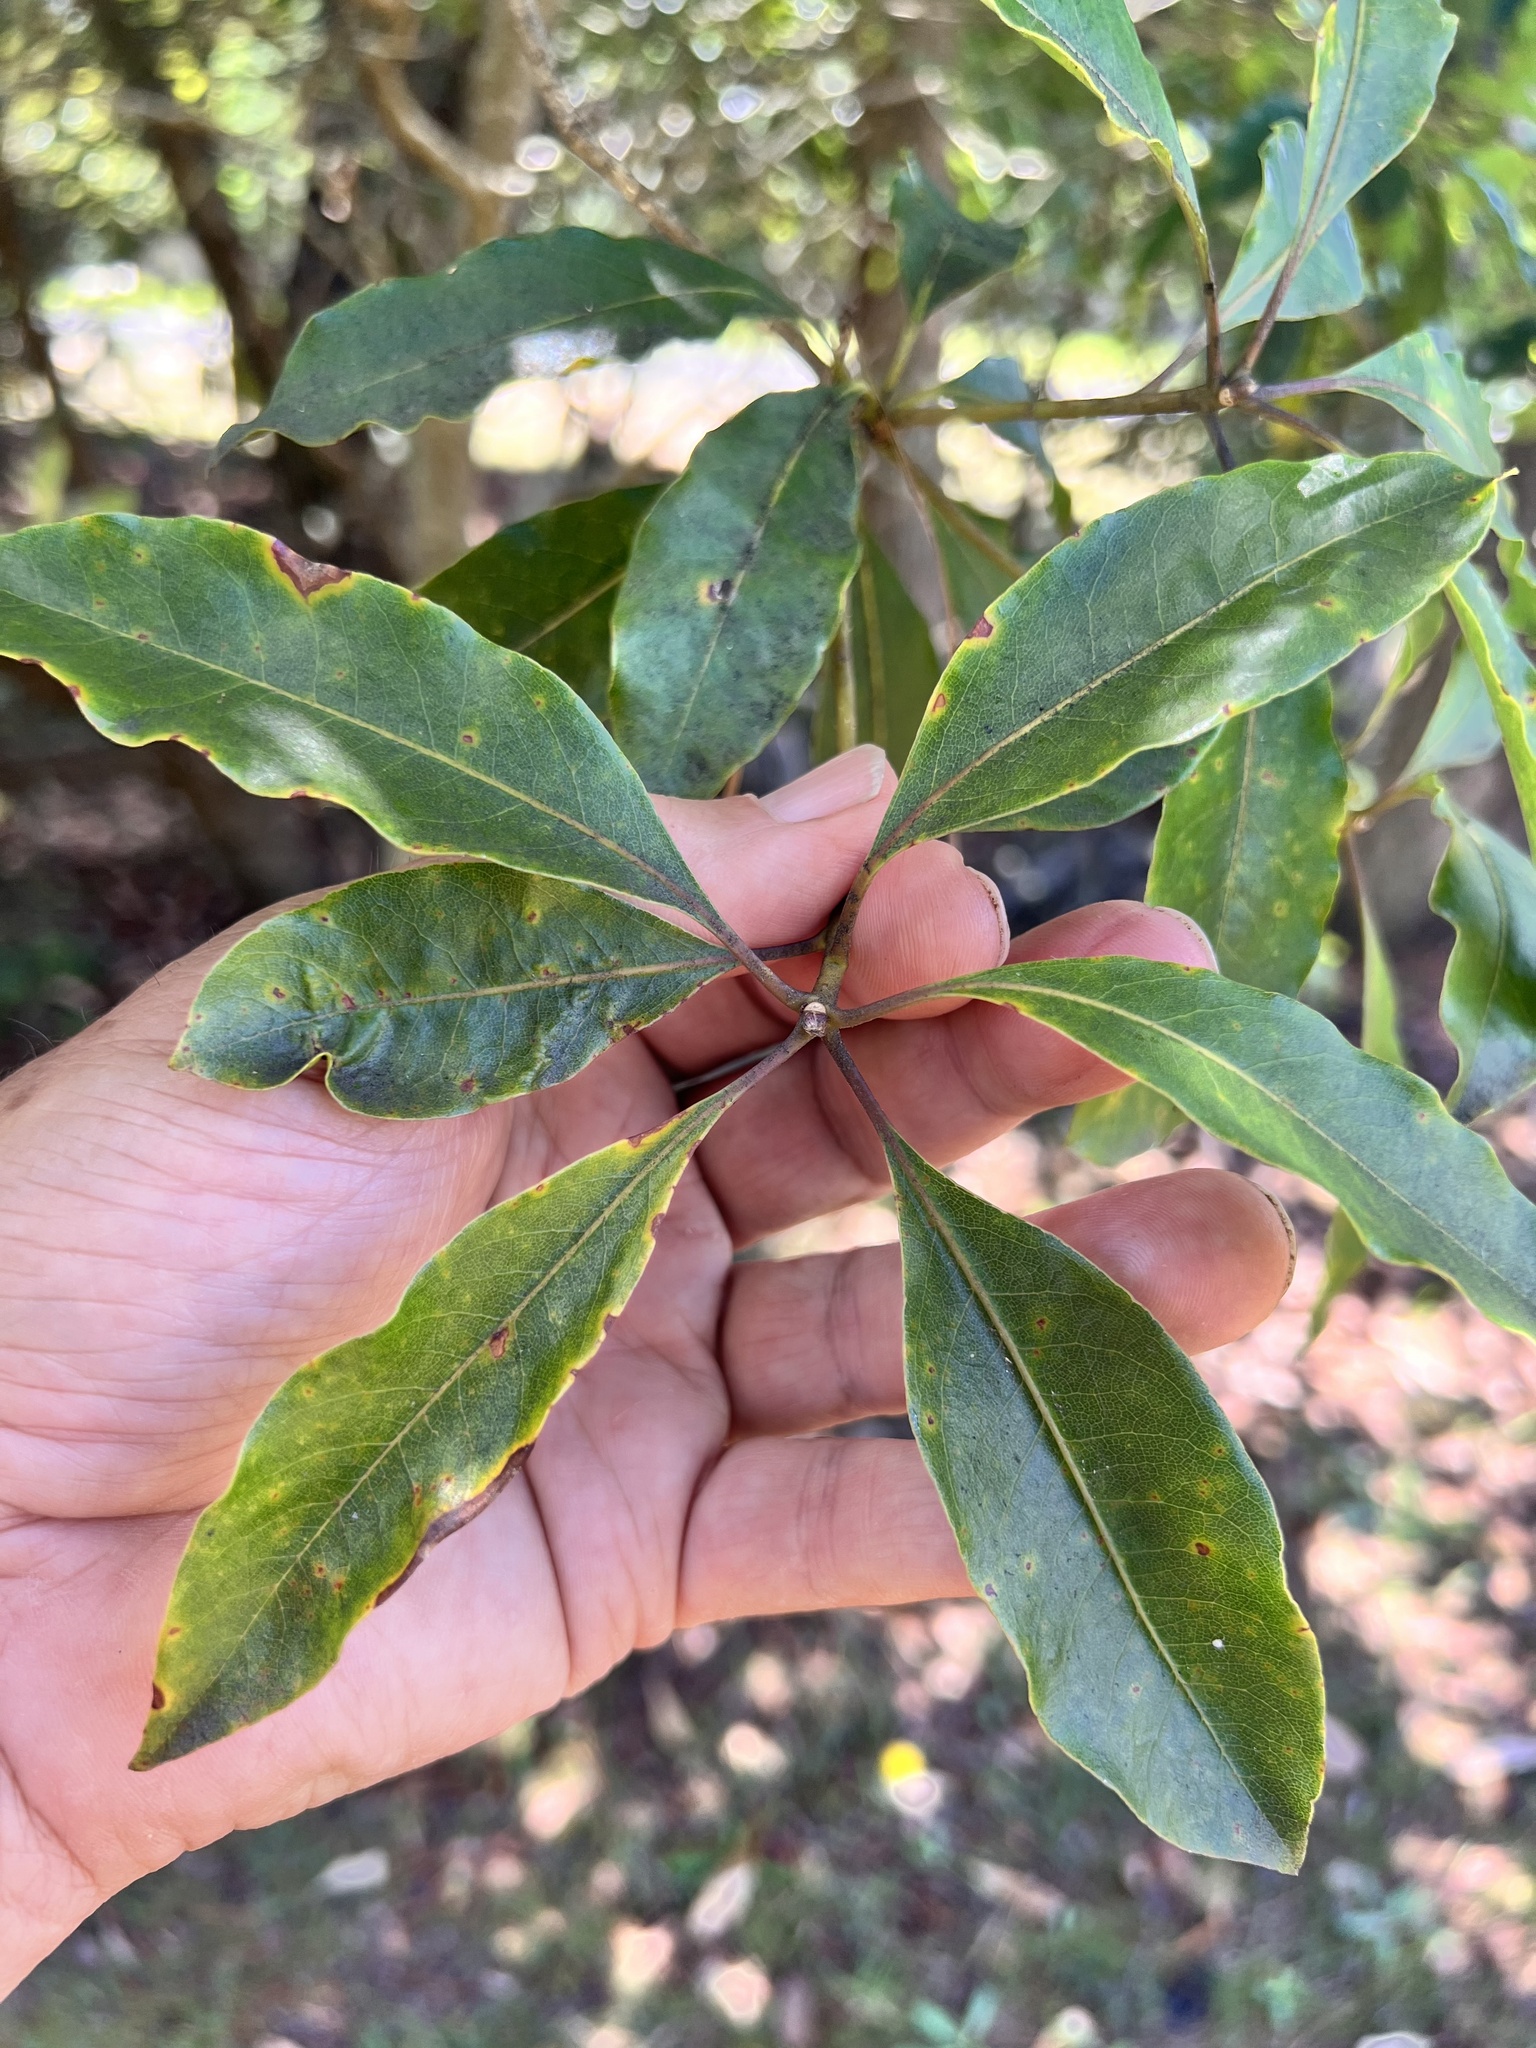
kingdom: Plantae
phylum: Tracheophyta
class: Magnoliopsida
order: Apiales
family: Pittosporaceae
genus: Pittosporum
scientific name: Pittosporum undulatum
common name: Australian cheesewood
